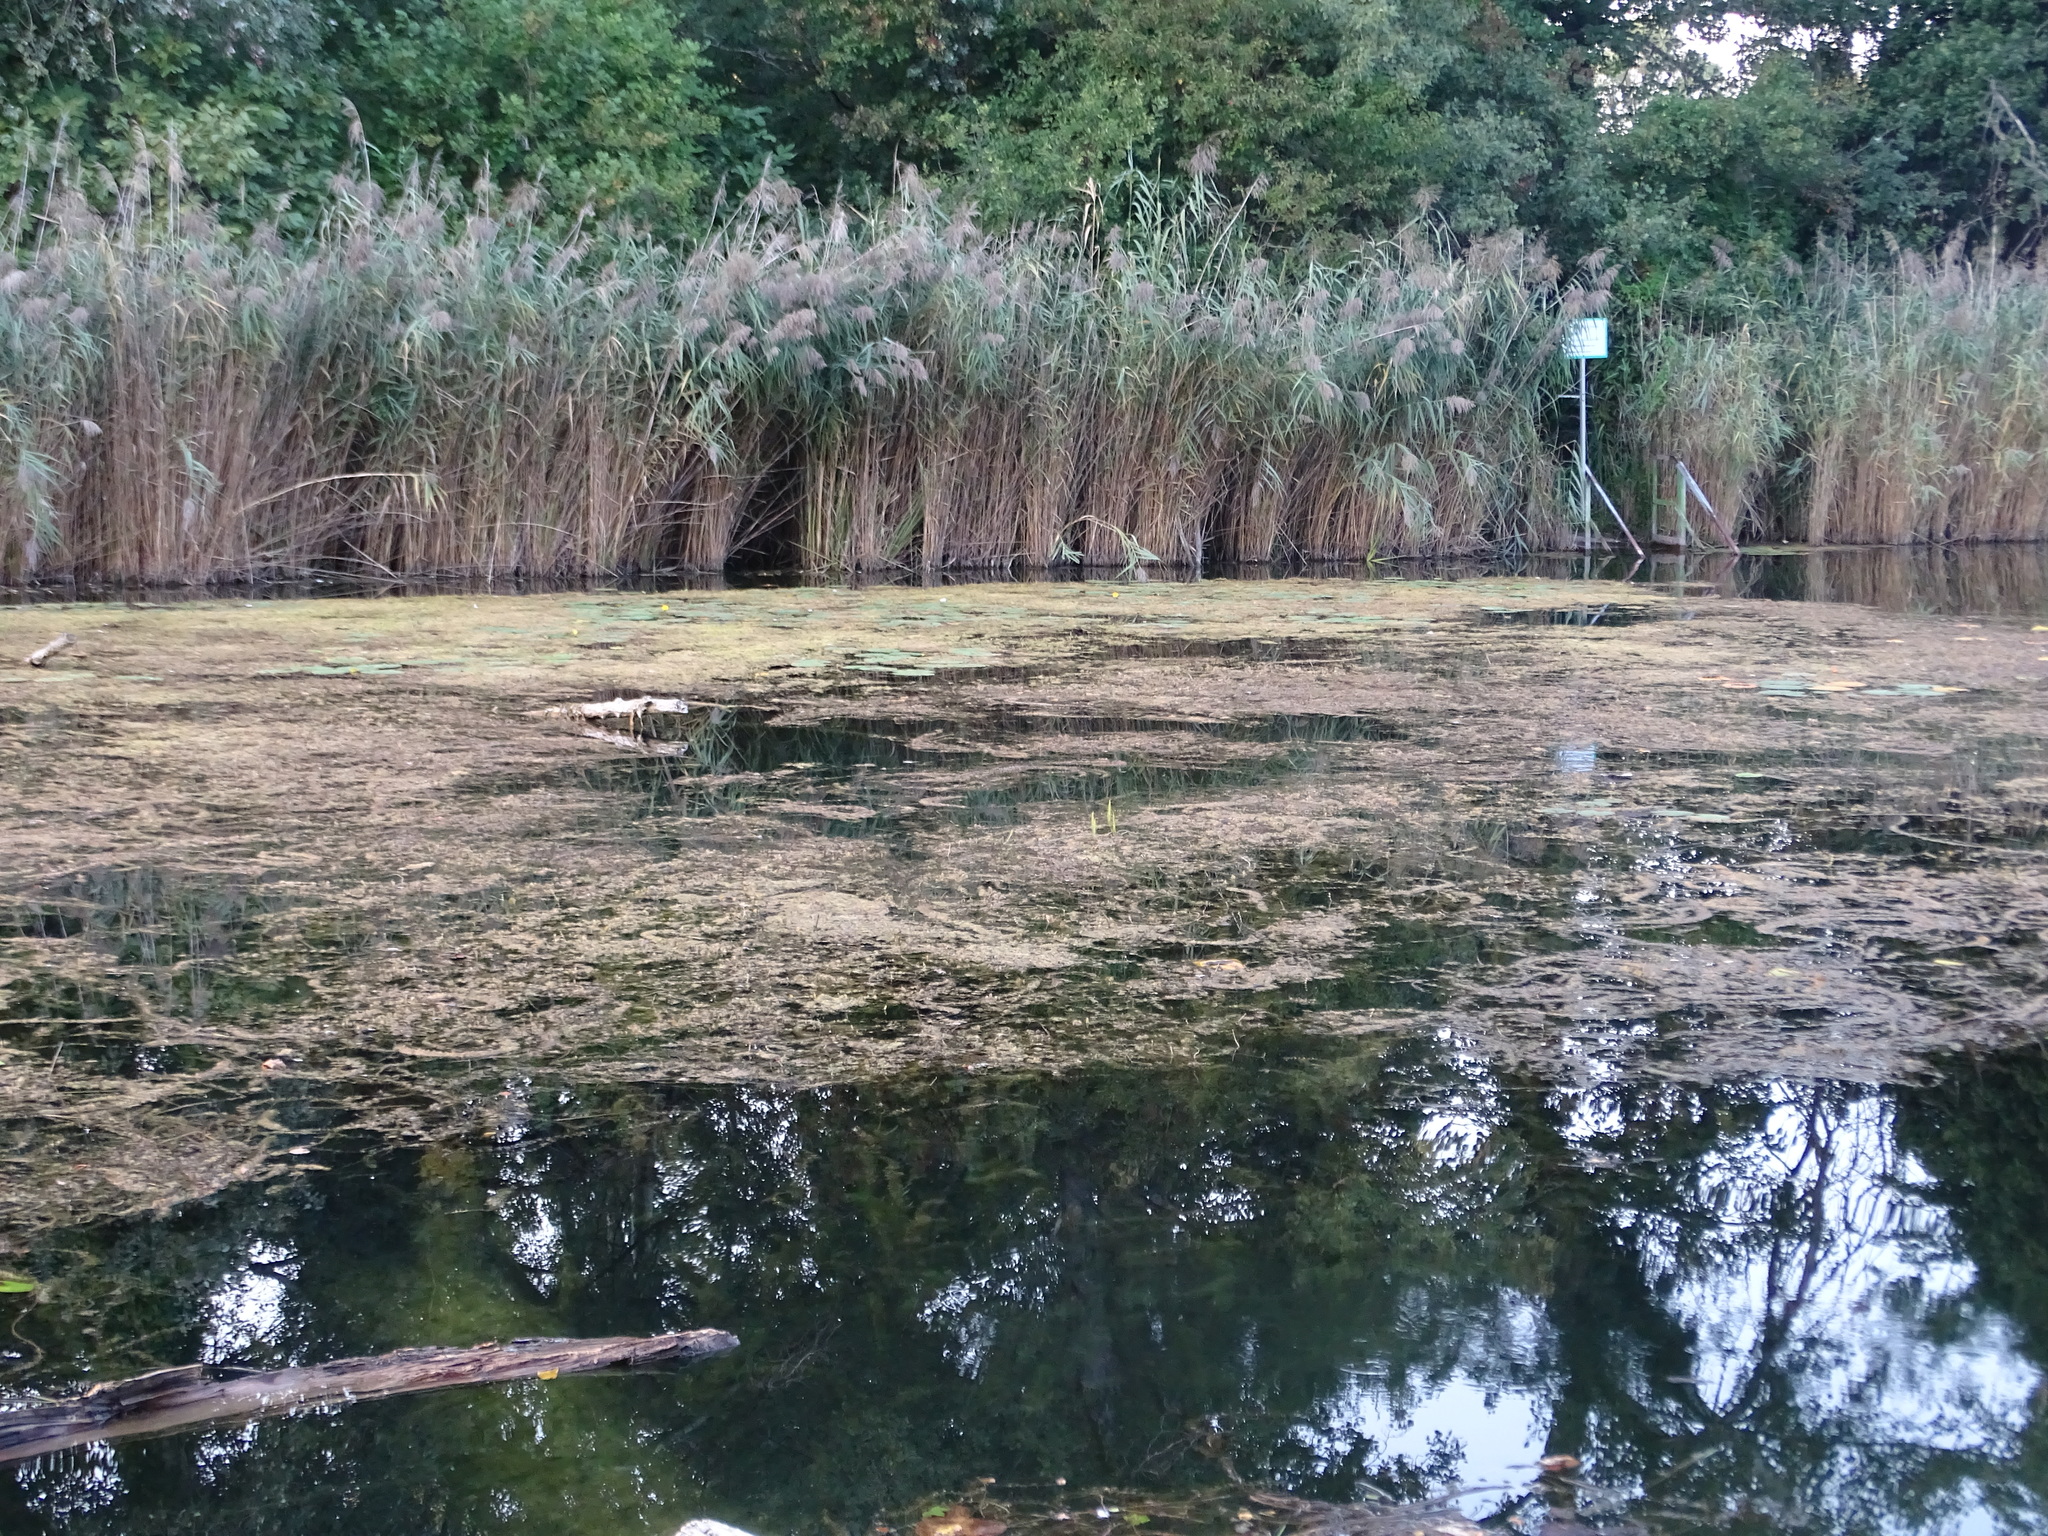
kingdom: Plantae
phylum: Tracheophyta
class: Magnoliopsida
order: Lamiales
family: Plantaginaceae
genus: Hippuris
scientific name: Hippuris vulgaris
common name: Mare's-tail
